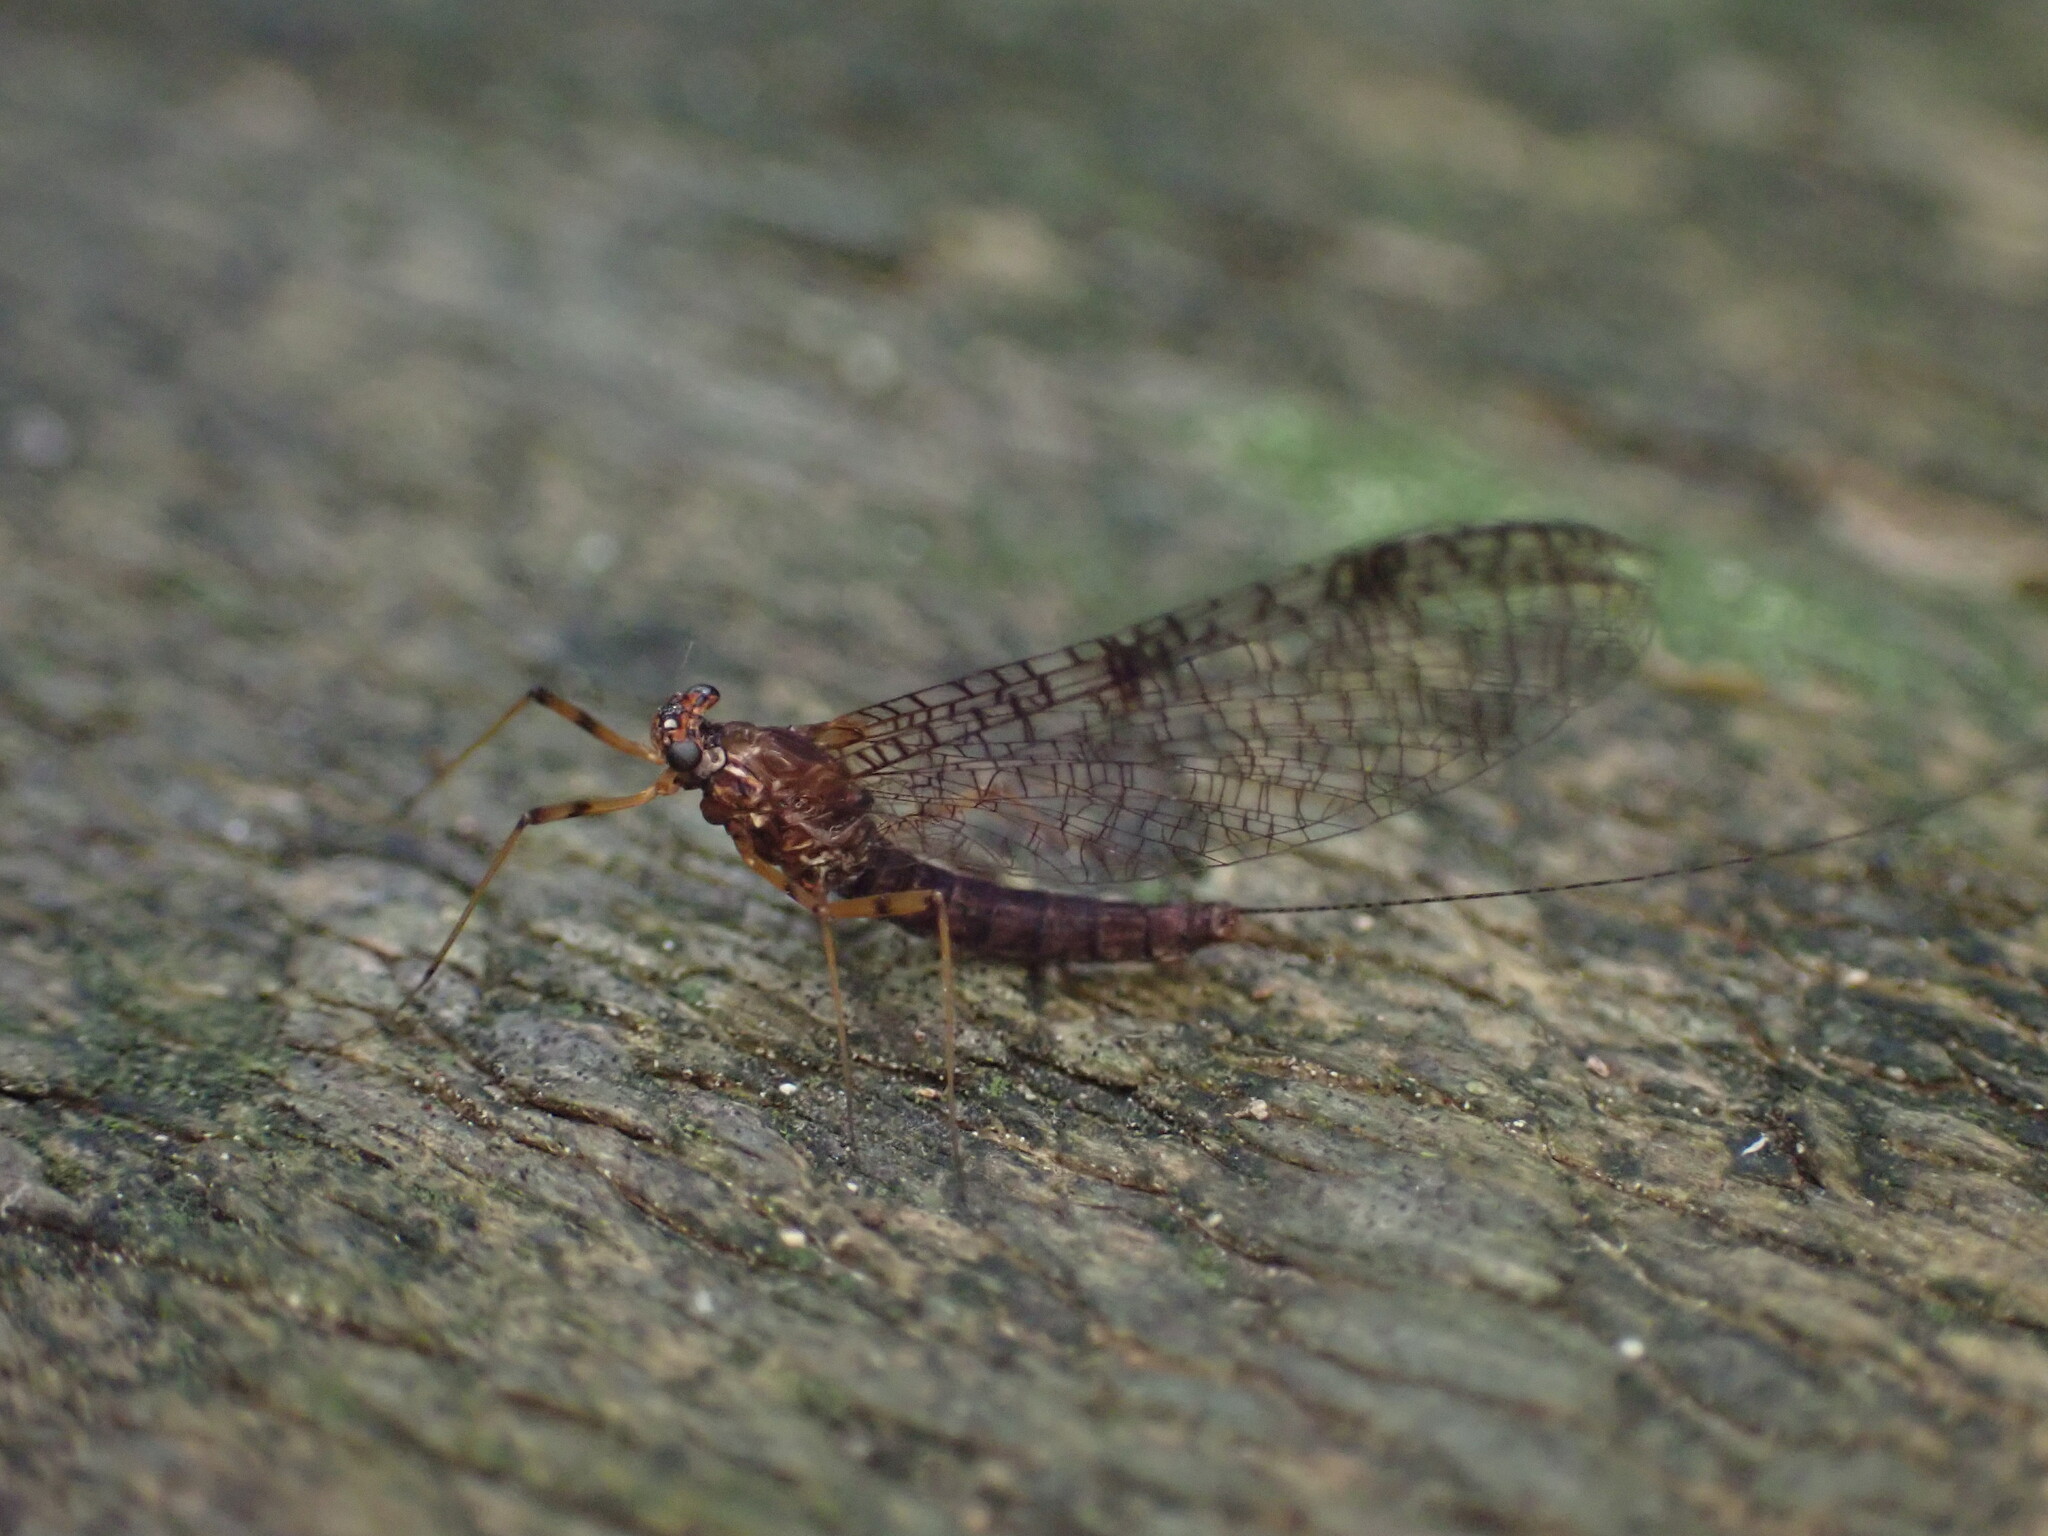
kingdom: Animalia
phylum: Arthropoda
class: Insecta
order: Ephemeroptera
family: Leptophlebiidae
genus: Neozephlebia
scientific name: Neozephlebia scita
